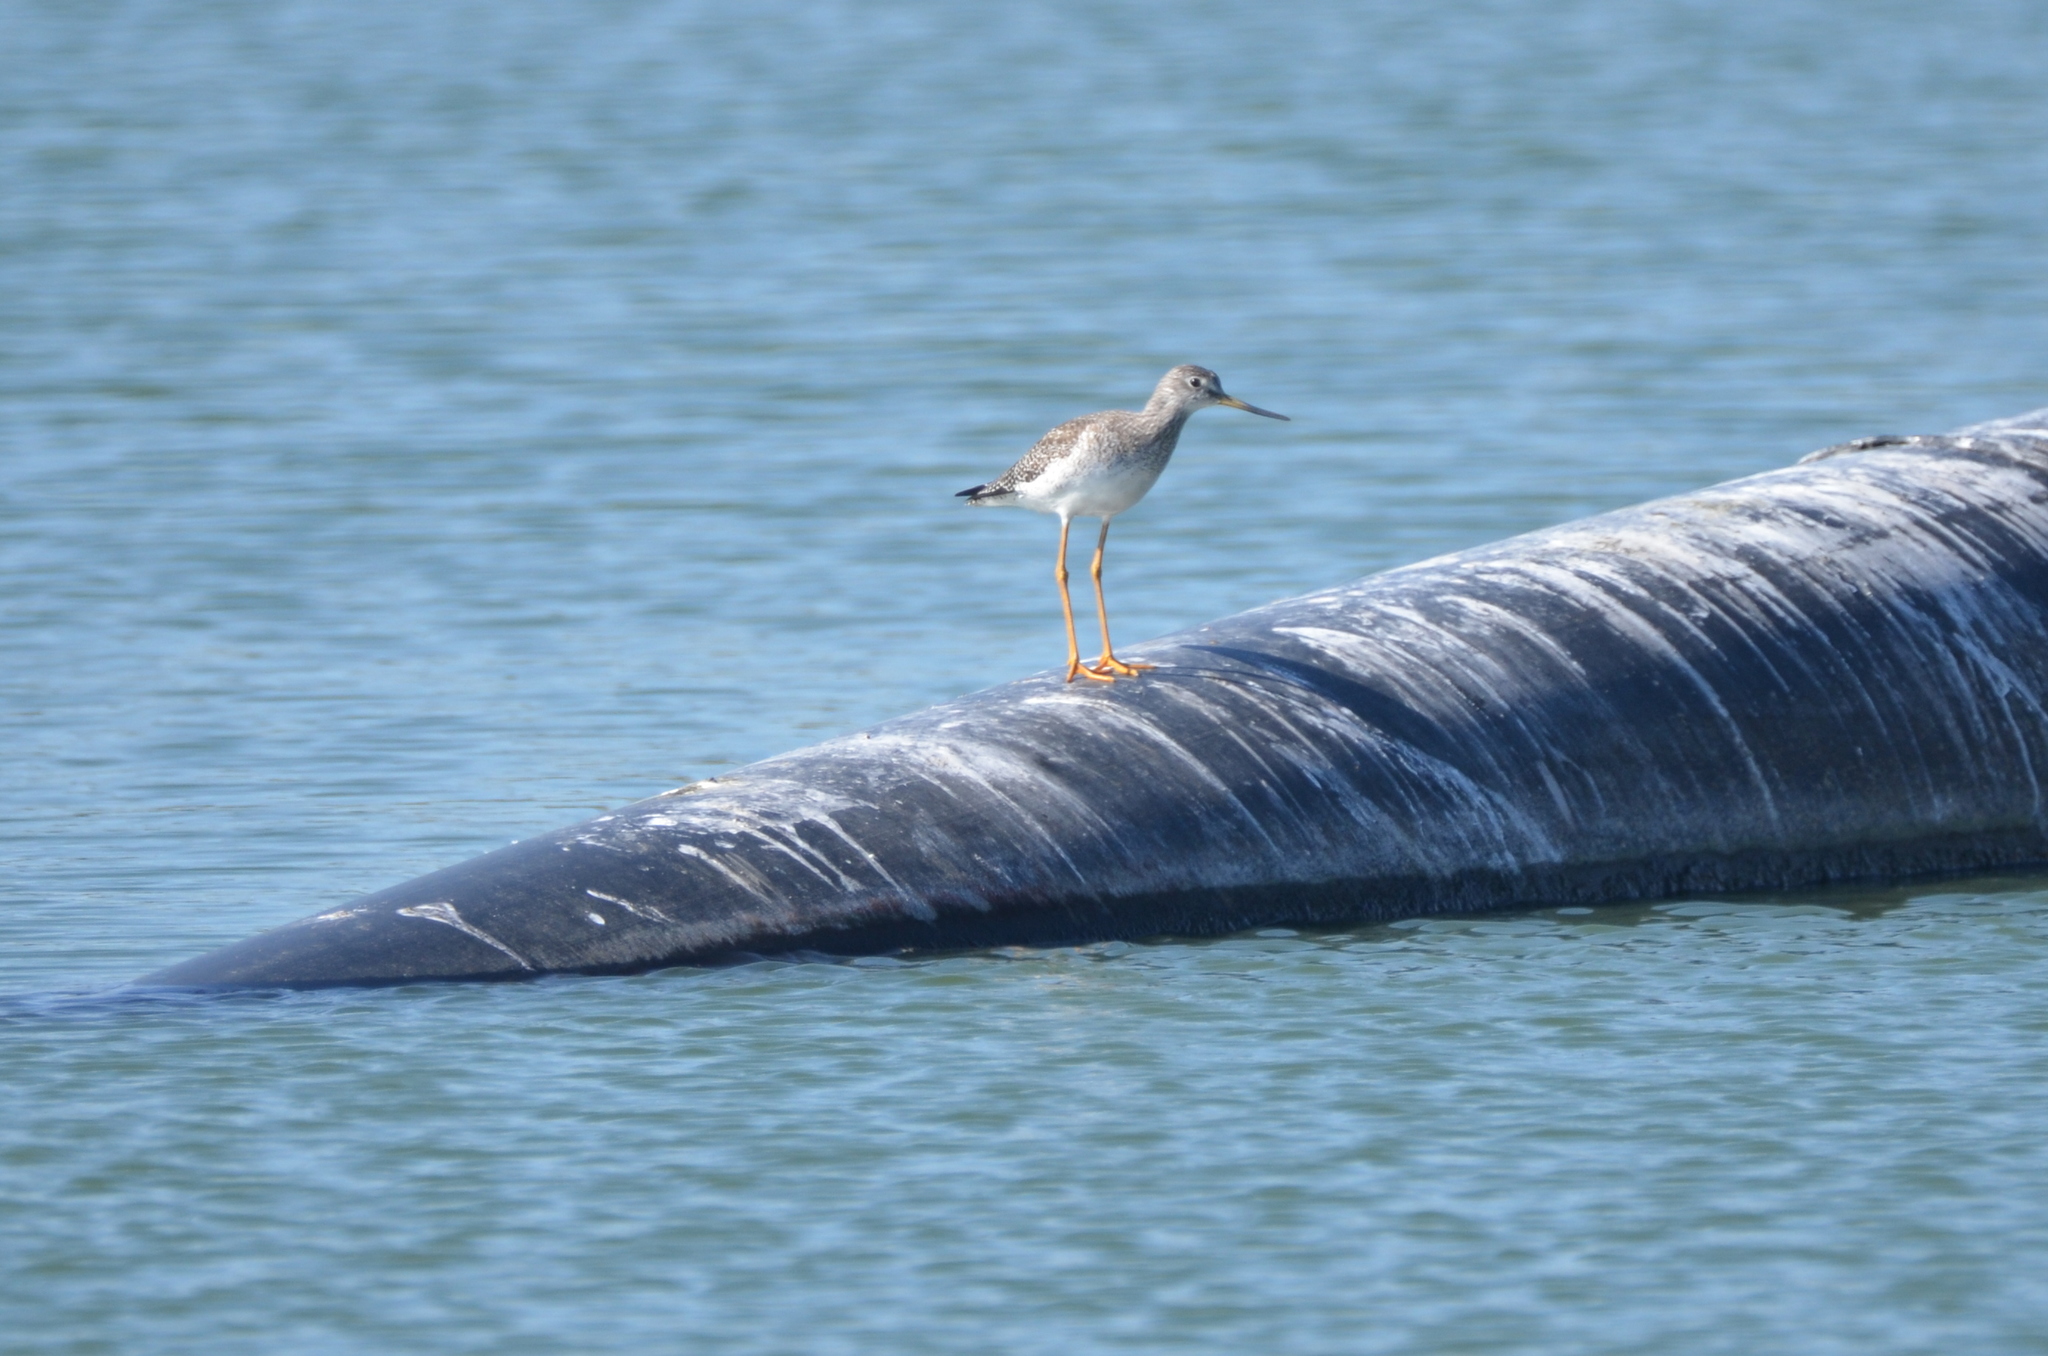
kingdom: Animalia
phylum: Chordata
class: Aves
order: Charadriiformes
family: Scolopacidae
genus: Tringa
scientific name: Tringa melanoleuca
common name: Greater yellowlegs
